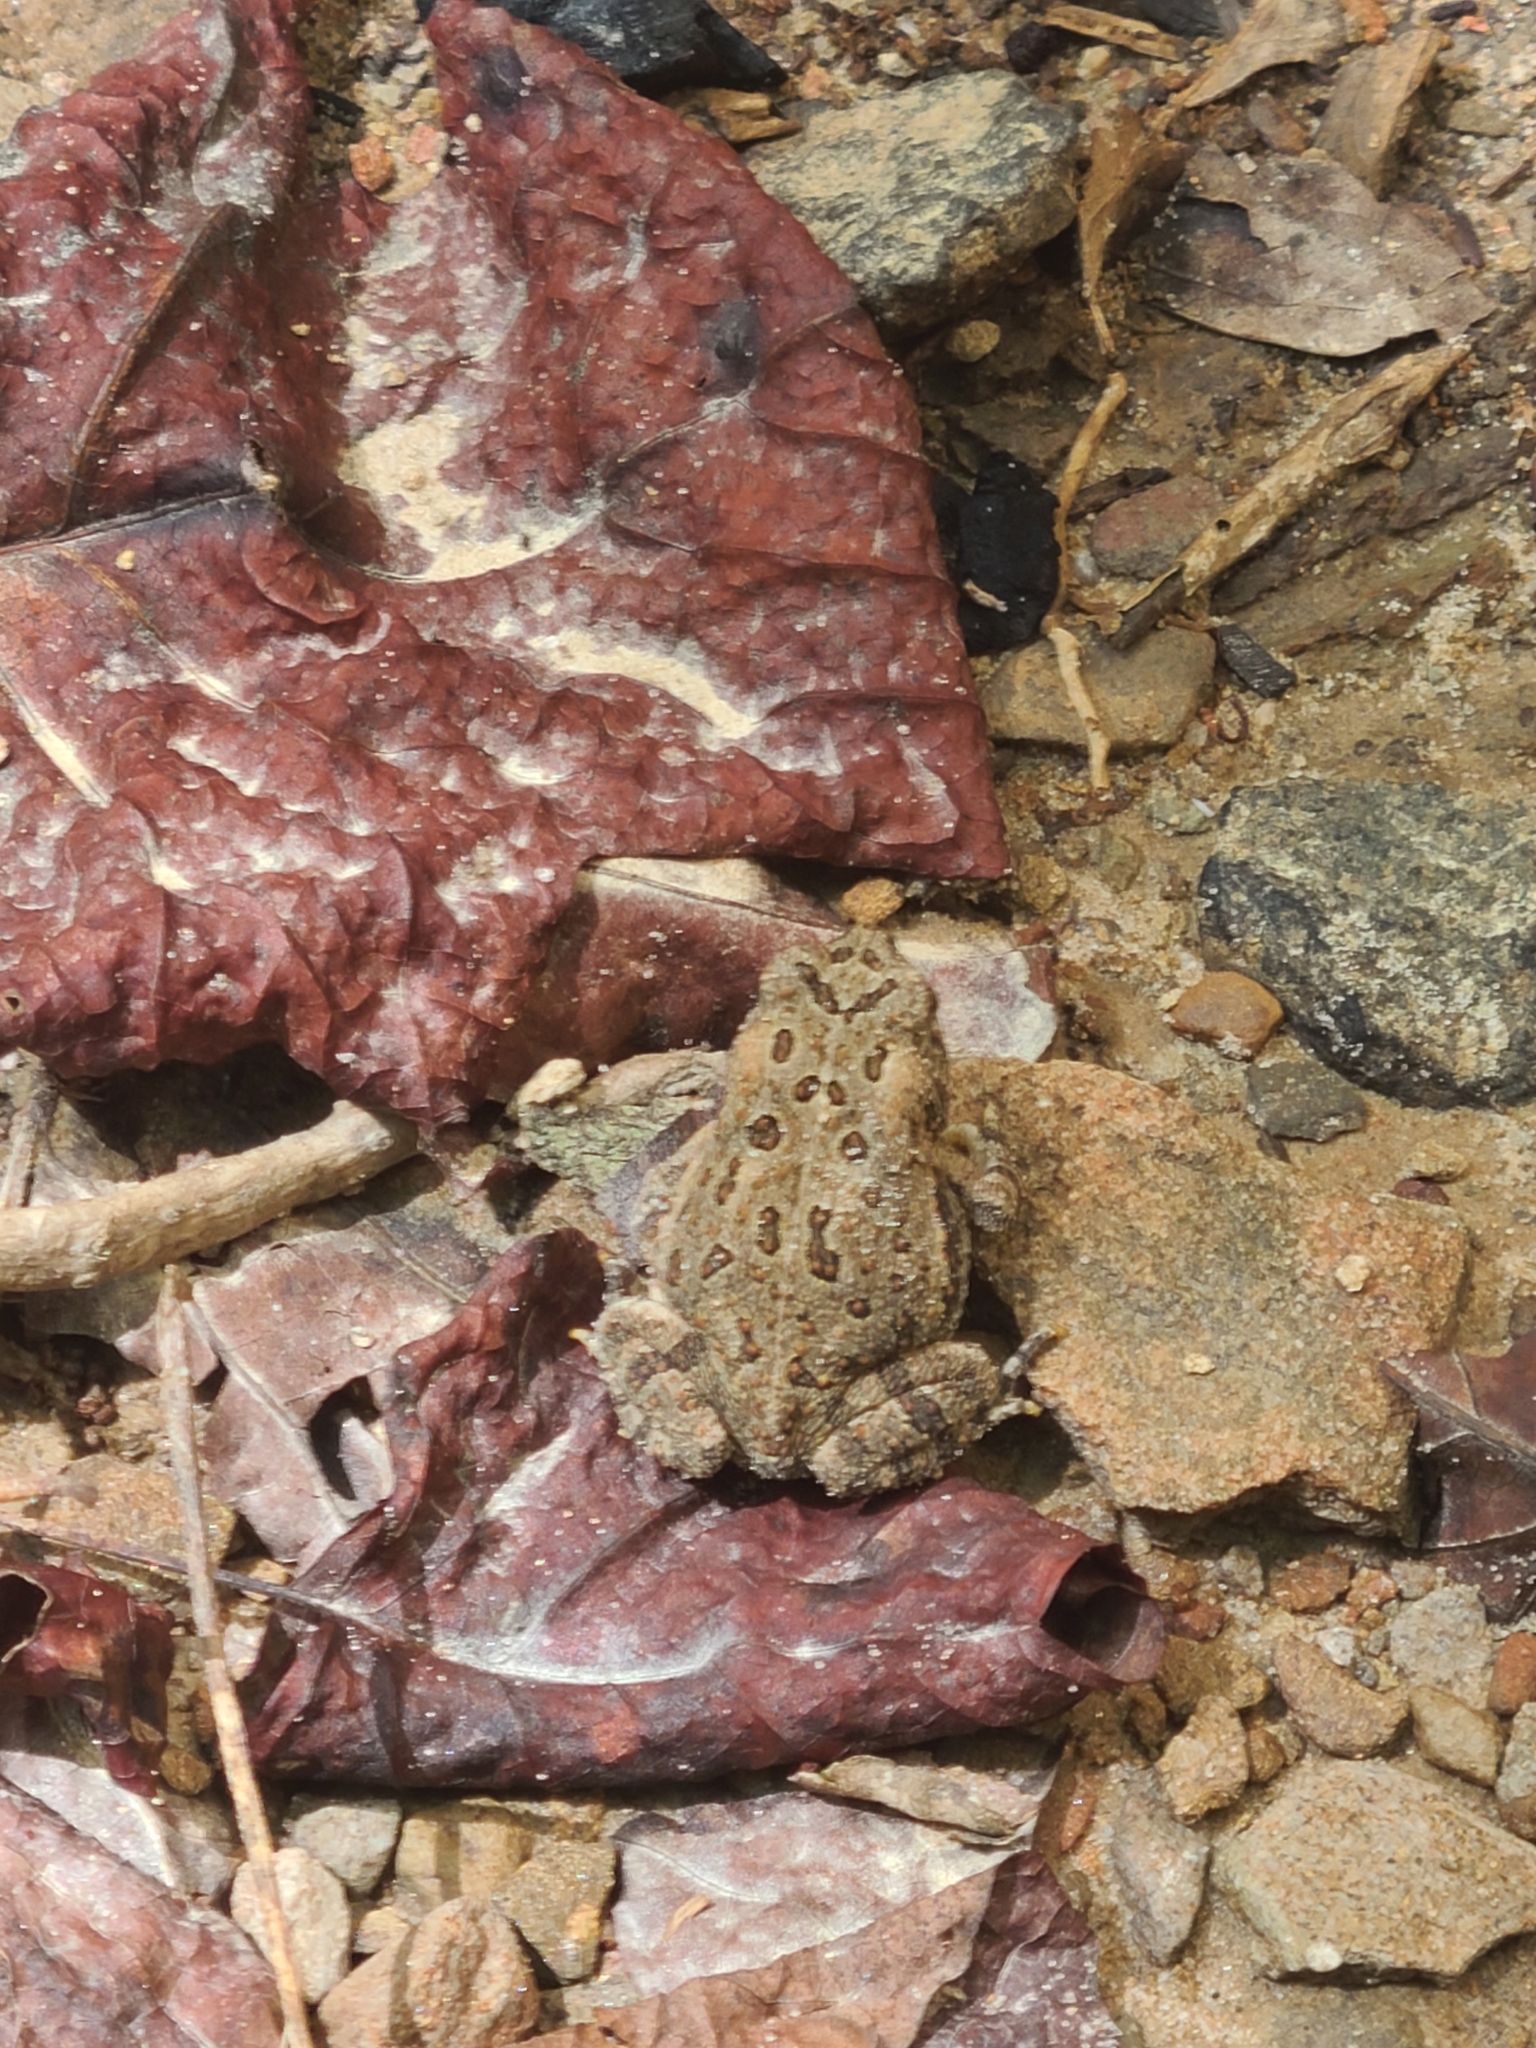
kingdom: Animalia
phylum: Chordata
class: Amphibia
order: Anura
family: Bufonidae
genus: Anaxyrus
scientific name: Anaxyrus fowleri
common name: Fowler's toad
